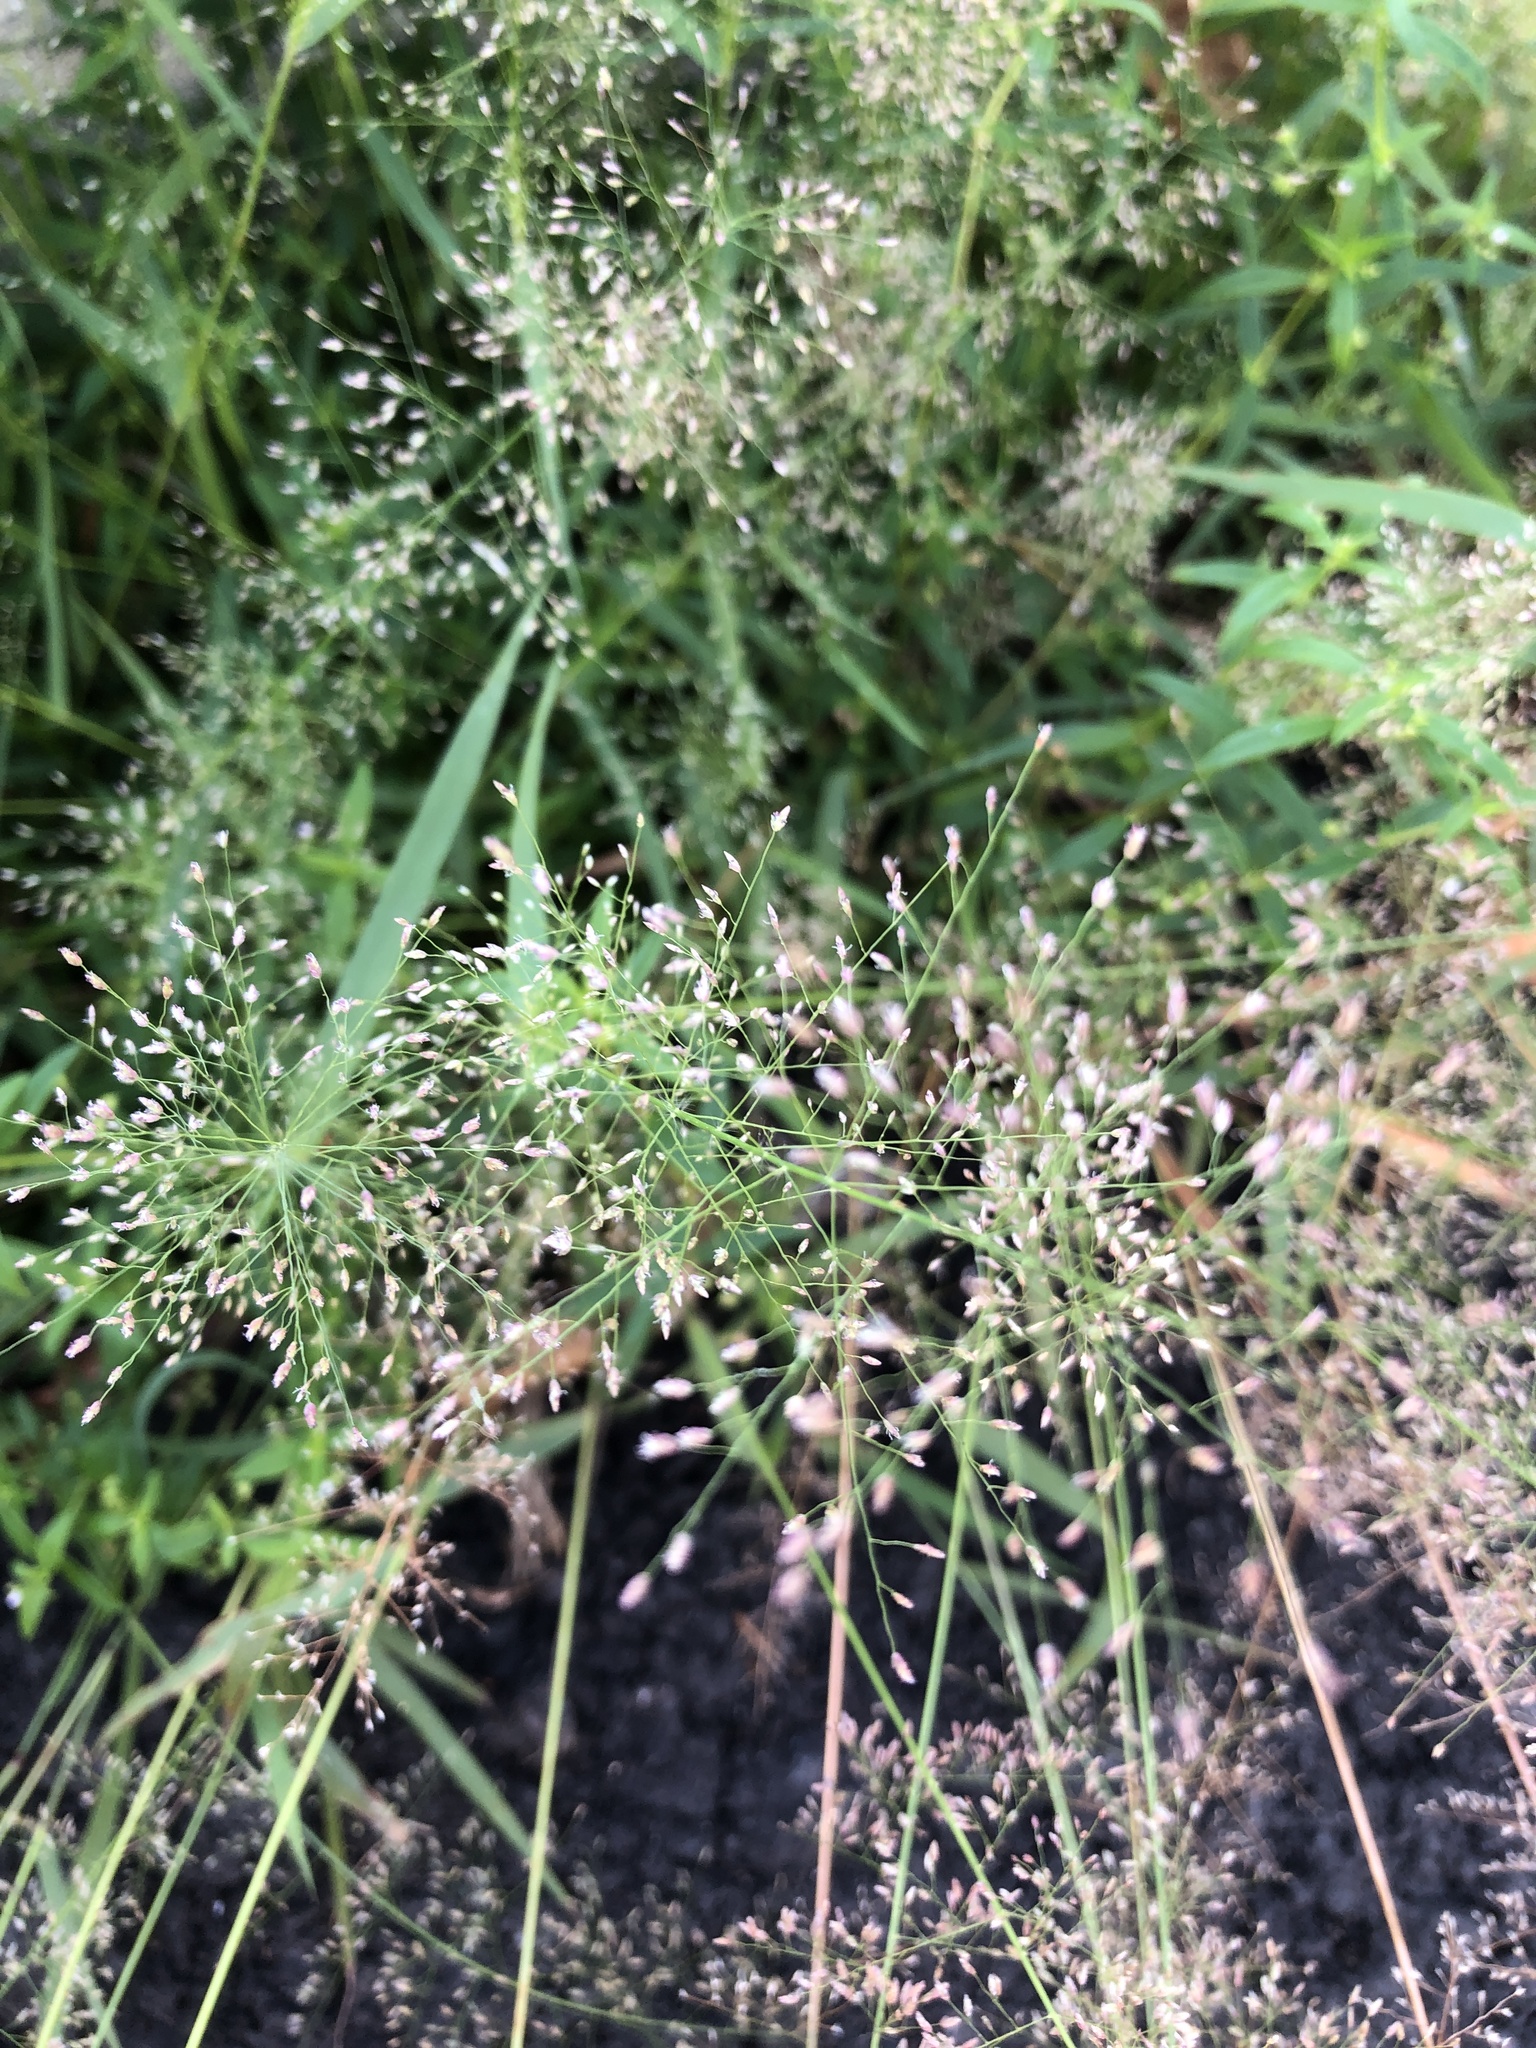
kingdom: Plantae
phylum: Tracheophyta
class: Liliopsida
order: Poales
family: Poaceae
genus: Eragrostis
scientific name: Eragrostis tenella
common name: Japanese lovegrass
